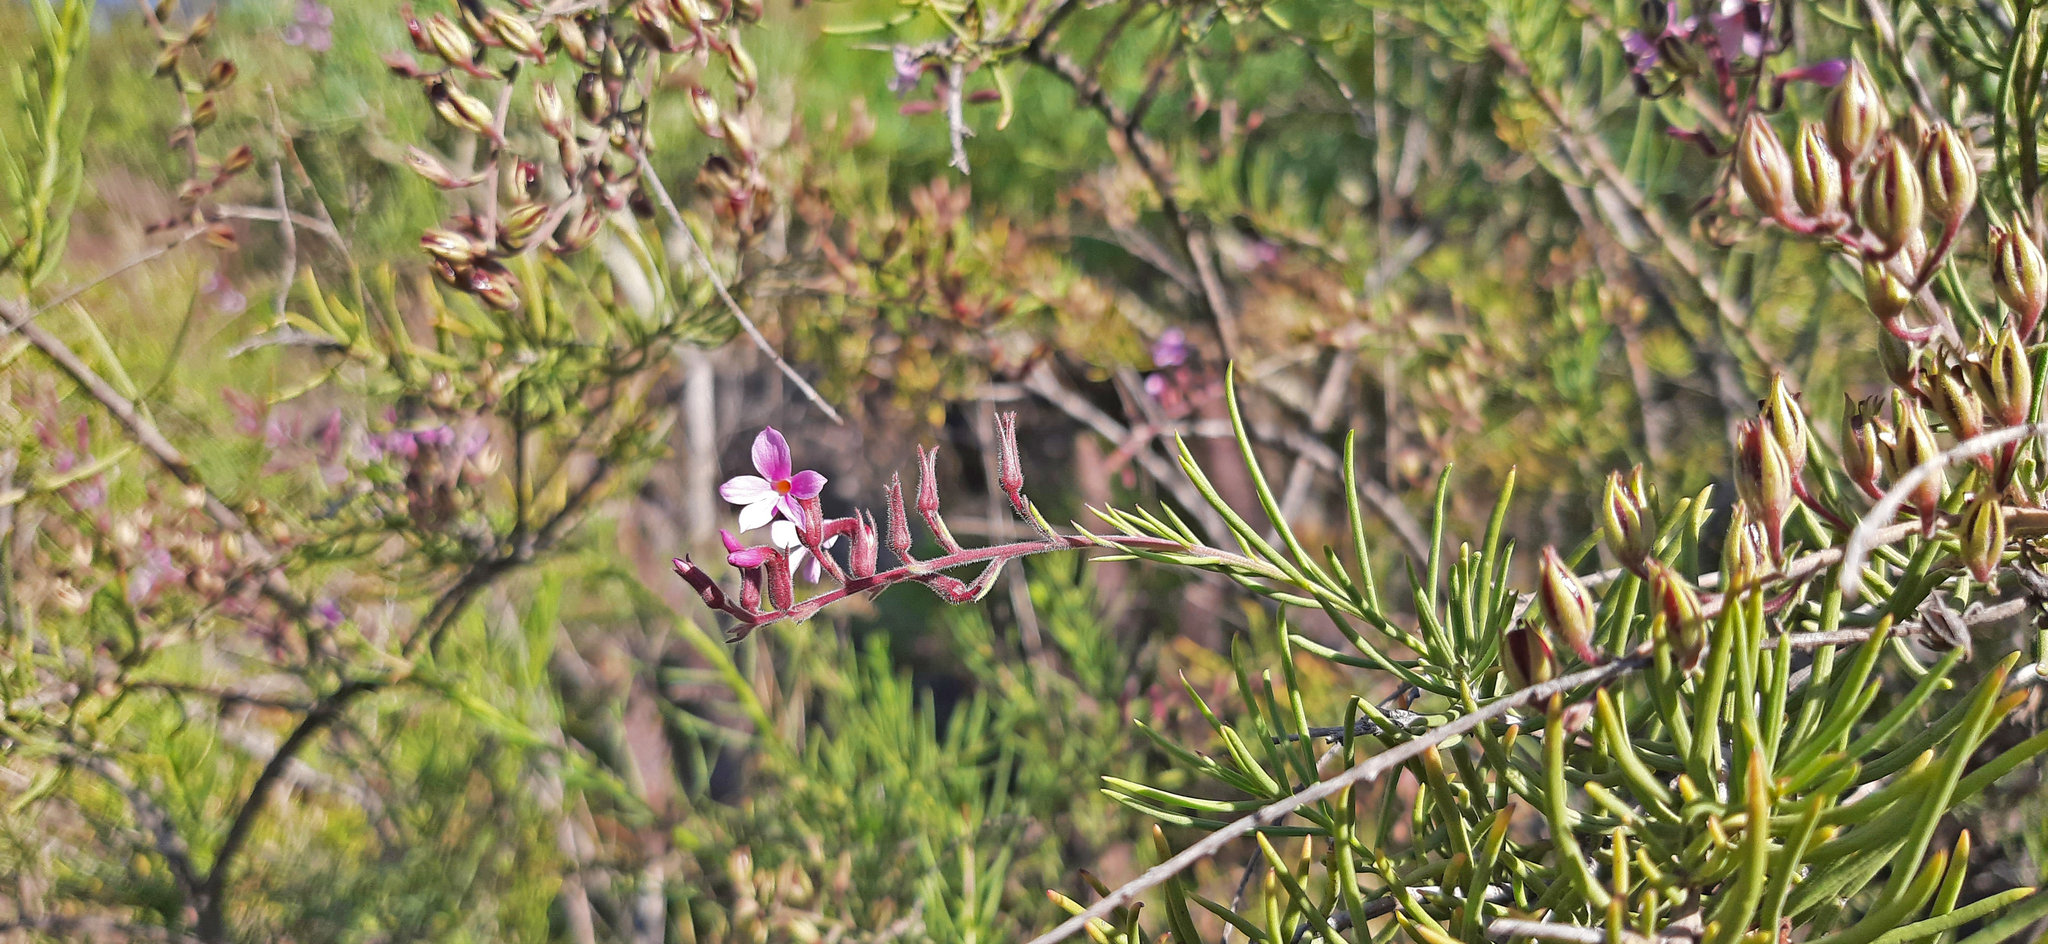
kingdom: Plantae
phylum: Tracheophyta
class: Magnoliopsida
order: Lamiales
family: Plantaginaceae
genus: Campylanthus
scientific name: Campylanthus salsoloides
